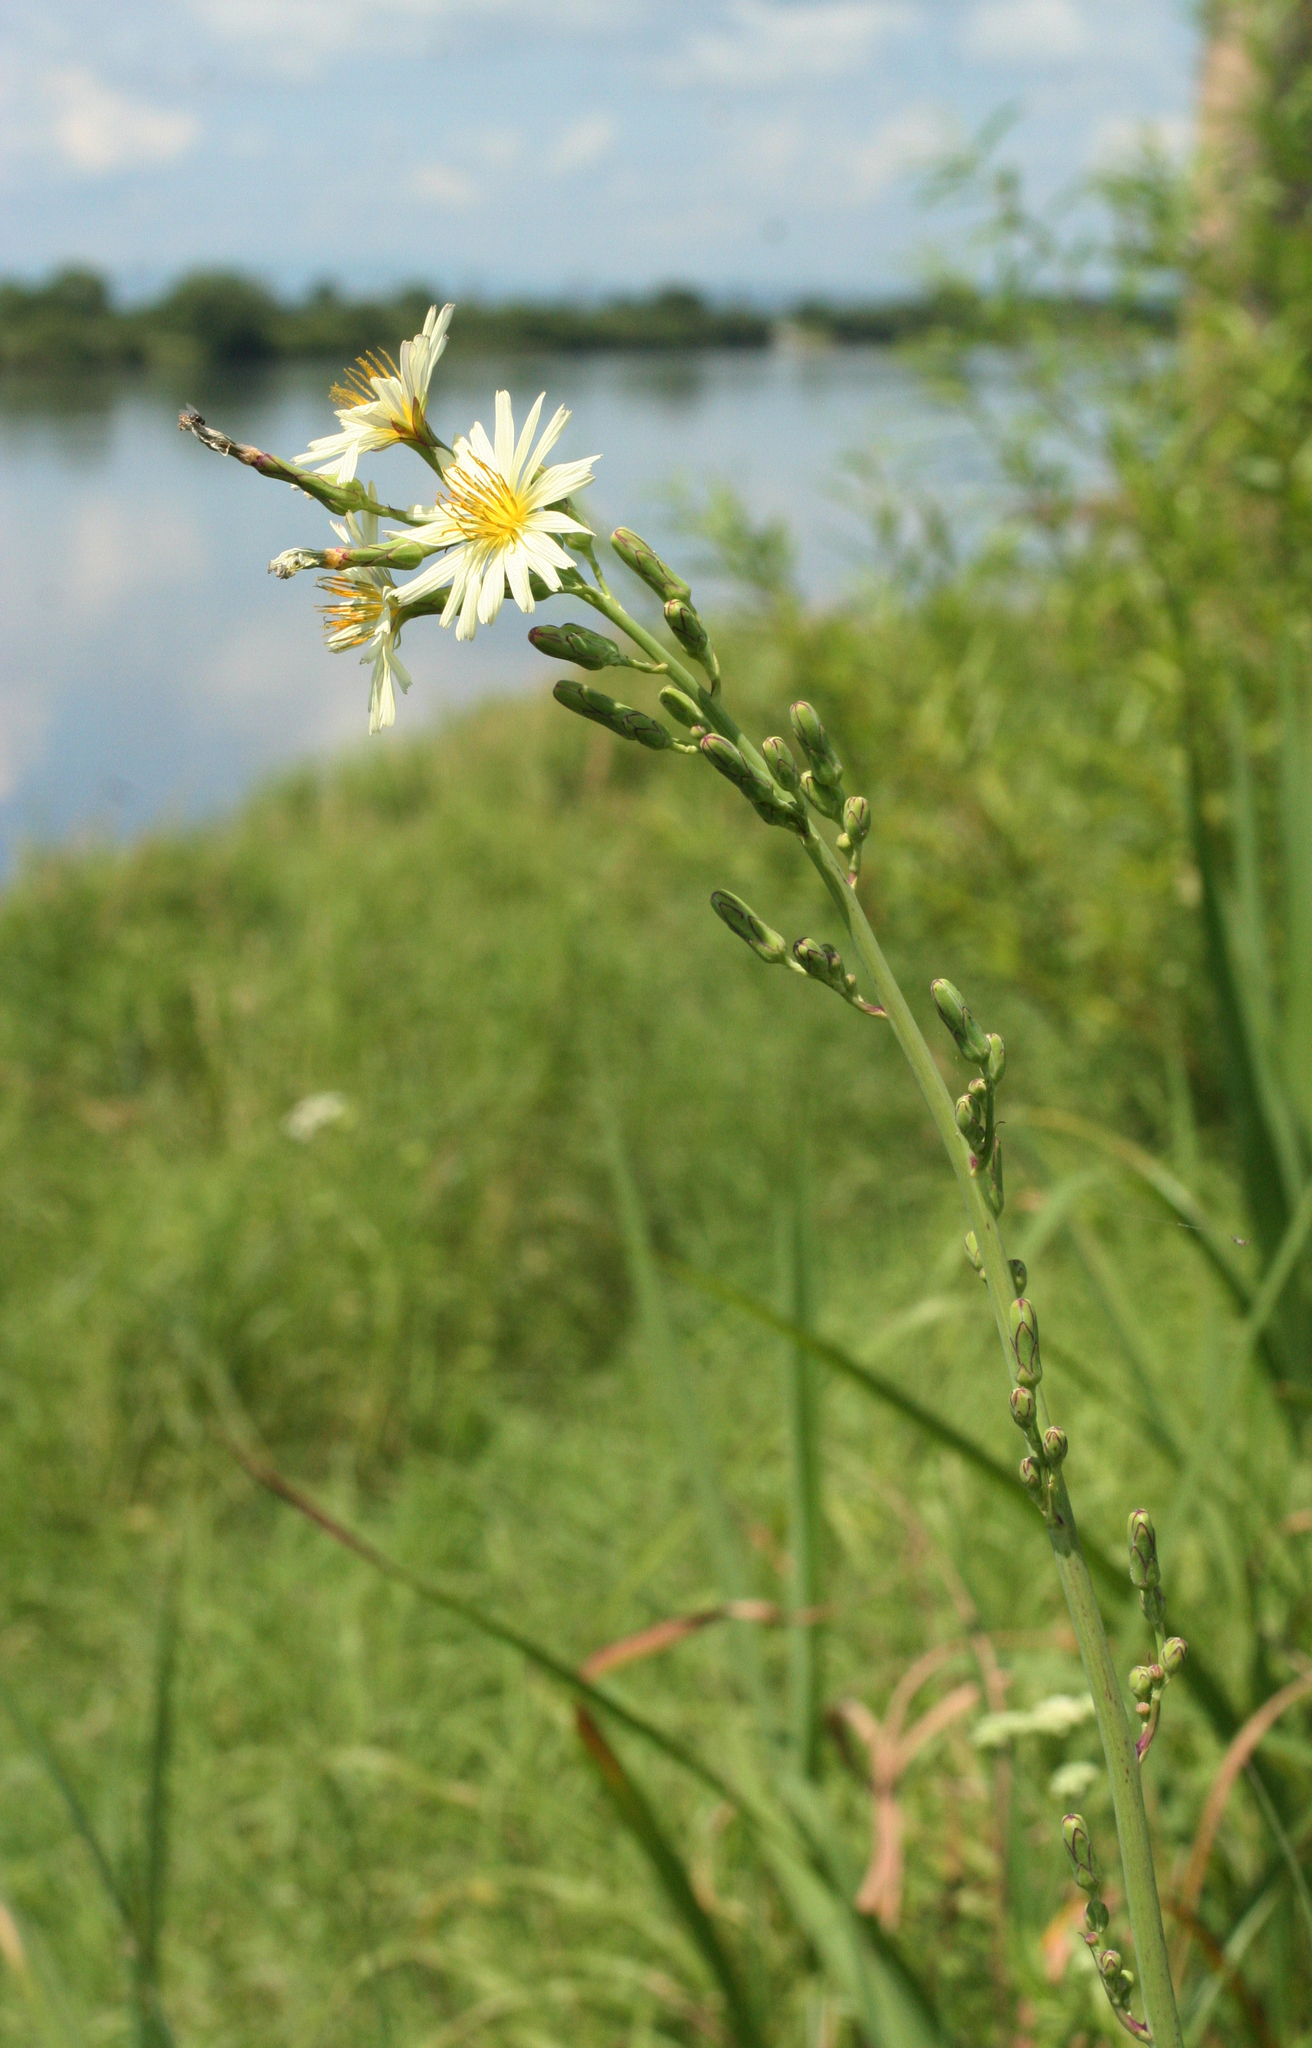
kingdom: Plantae
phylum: Tracheophyta
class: Magnoliopsida
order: Asterales
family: Asteraceae
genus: Lactuca
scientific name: Lactuca indica
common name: Wild lettuce
